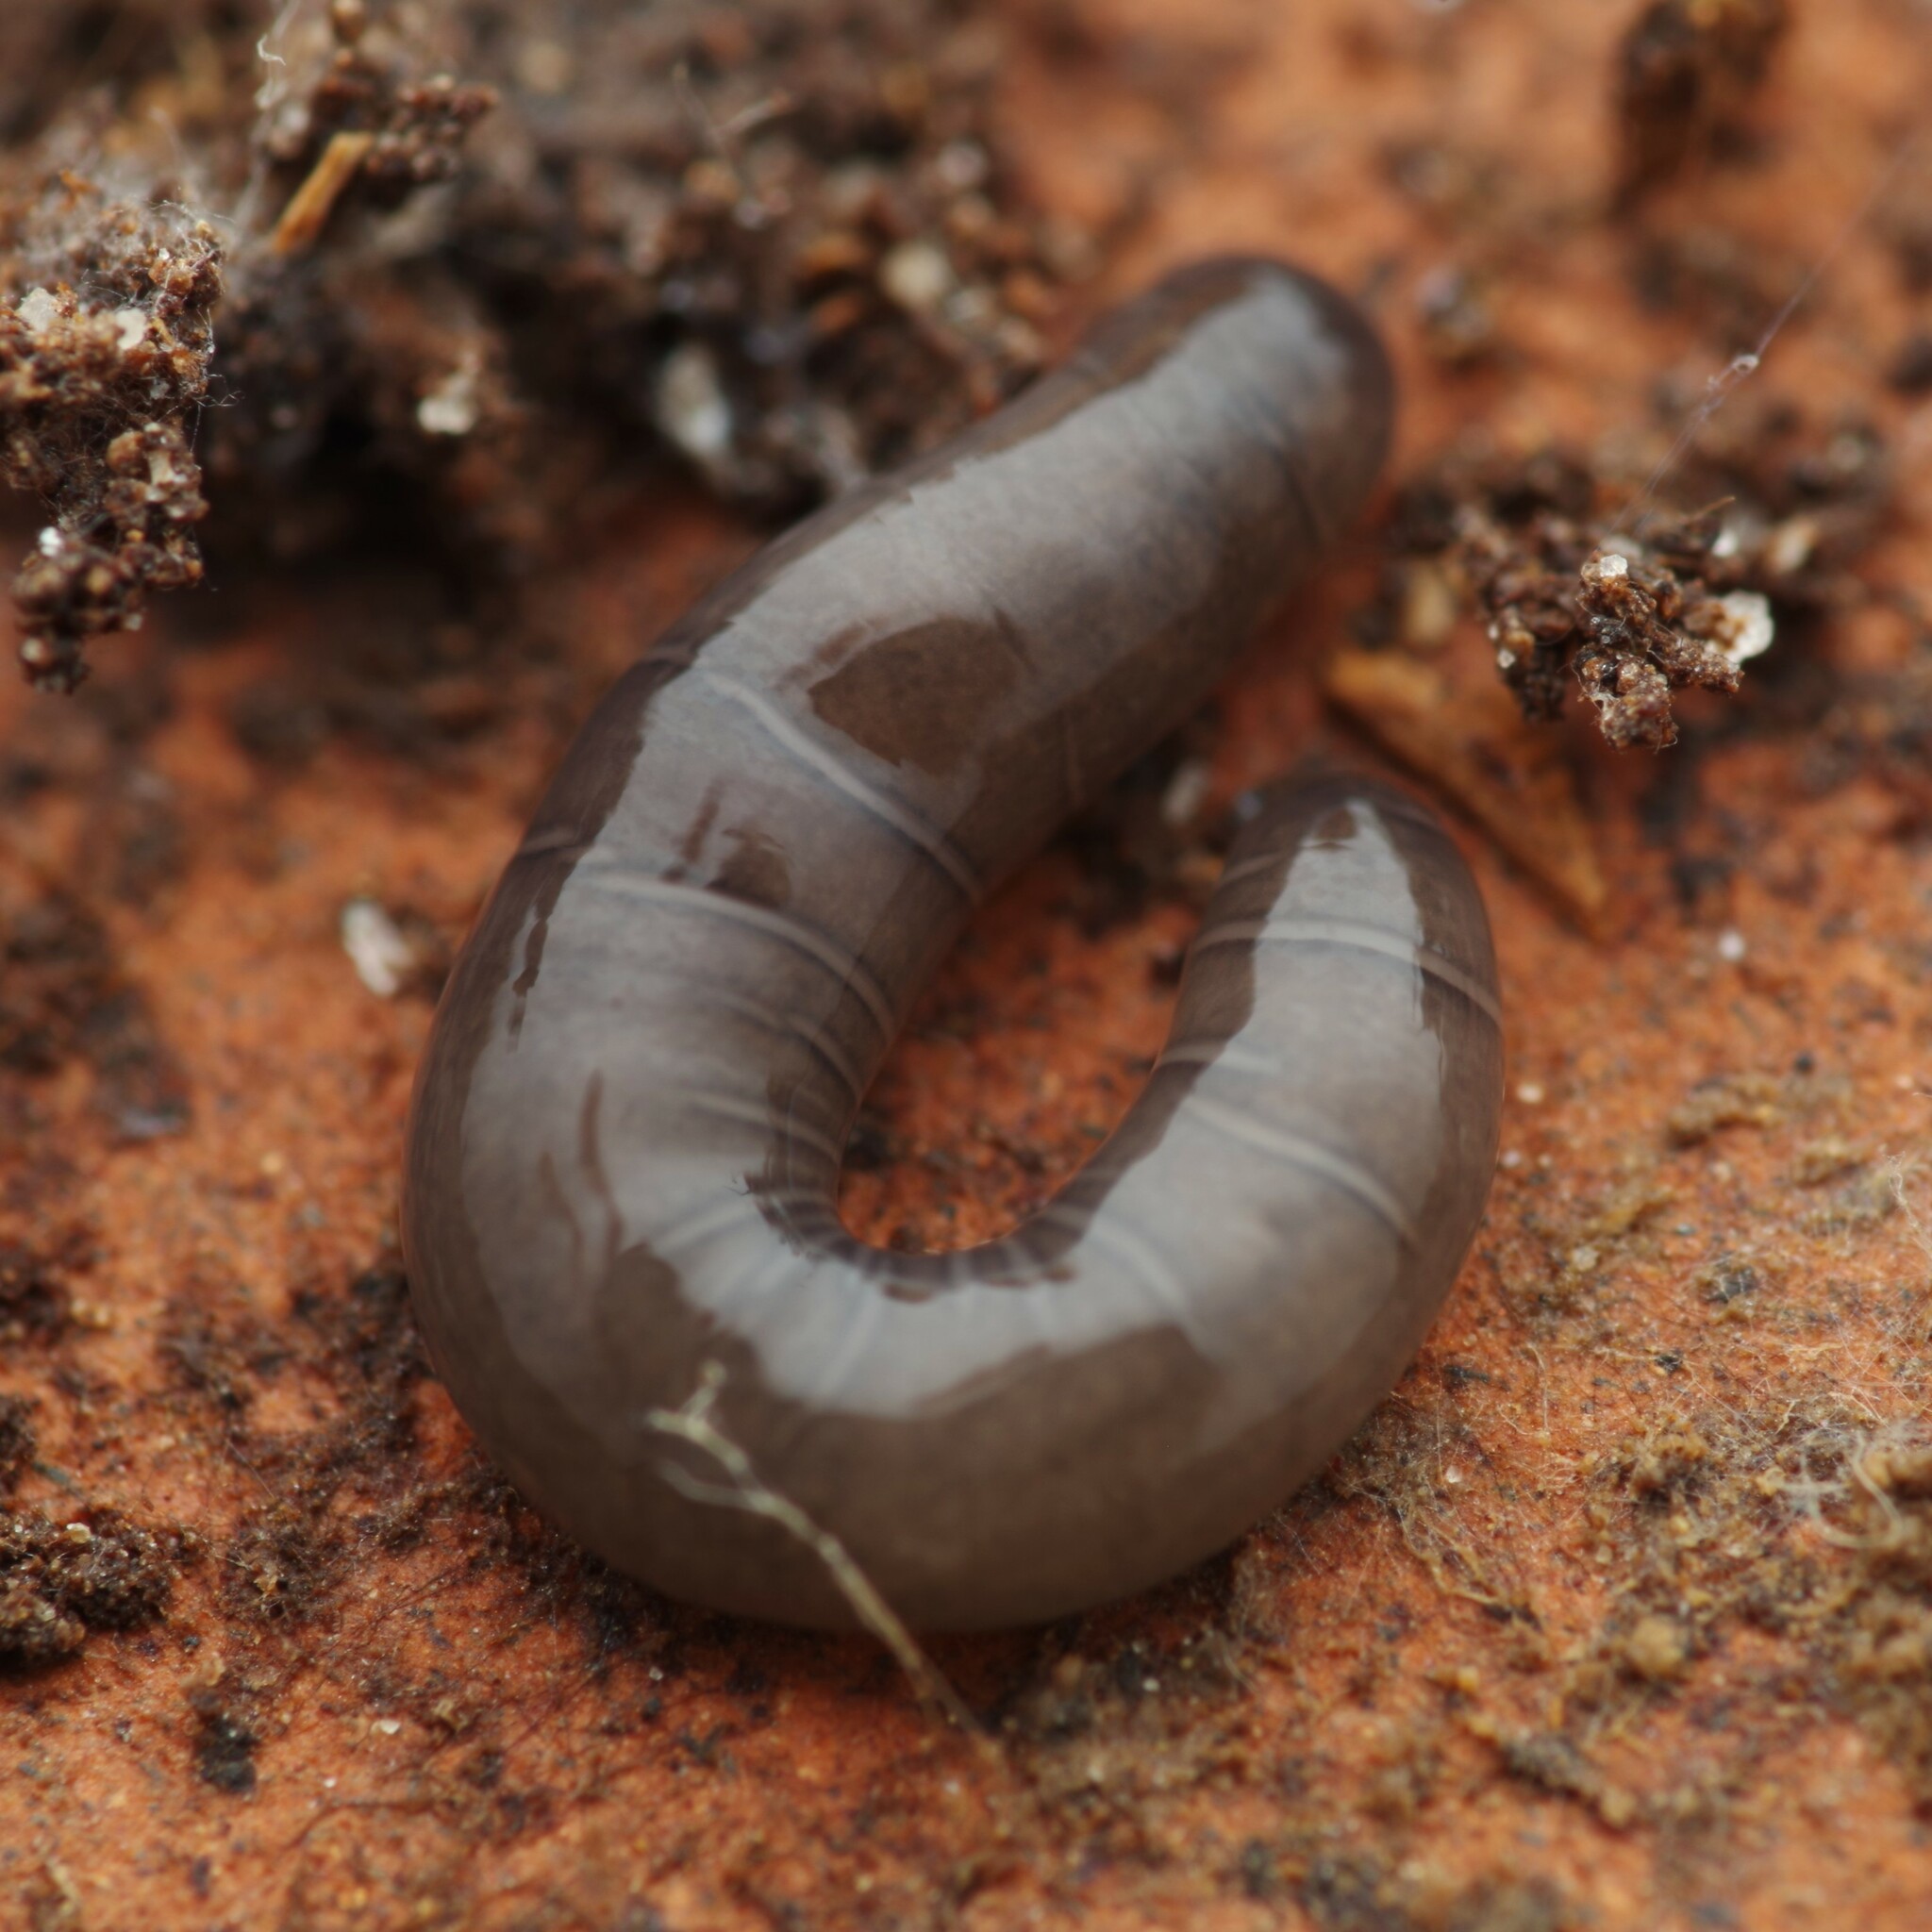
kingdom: Animalia
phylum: Platyhelminthes
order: Tricladida
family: Geoplanidae
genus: Microplana
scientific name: Microplana terrestris
